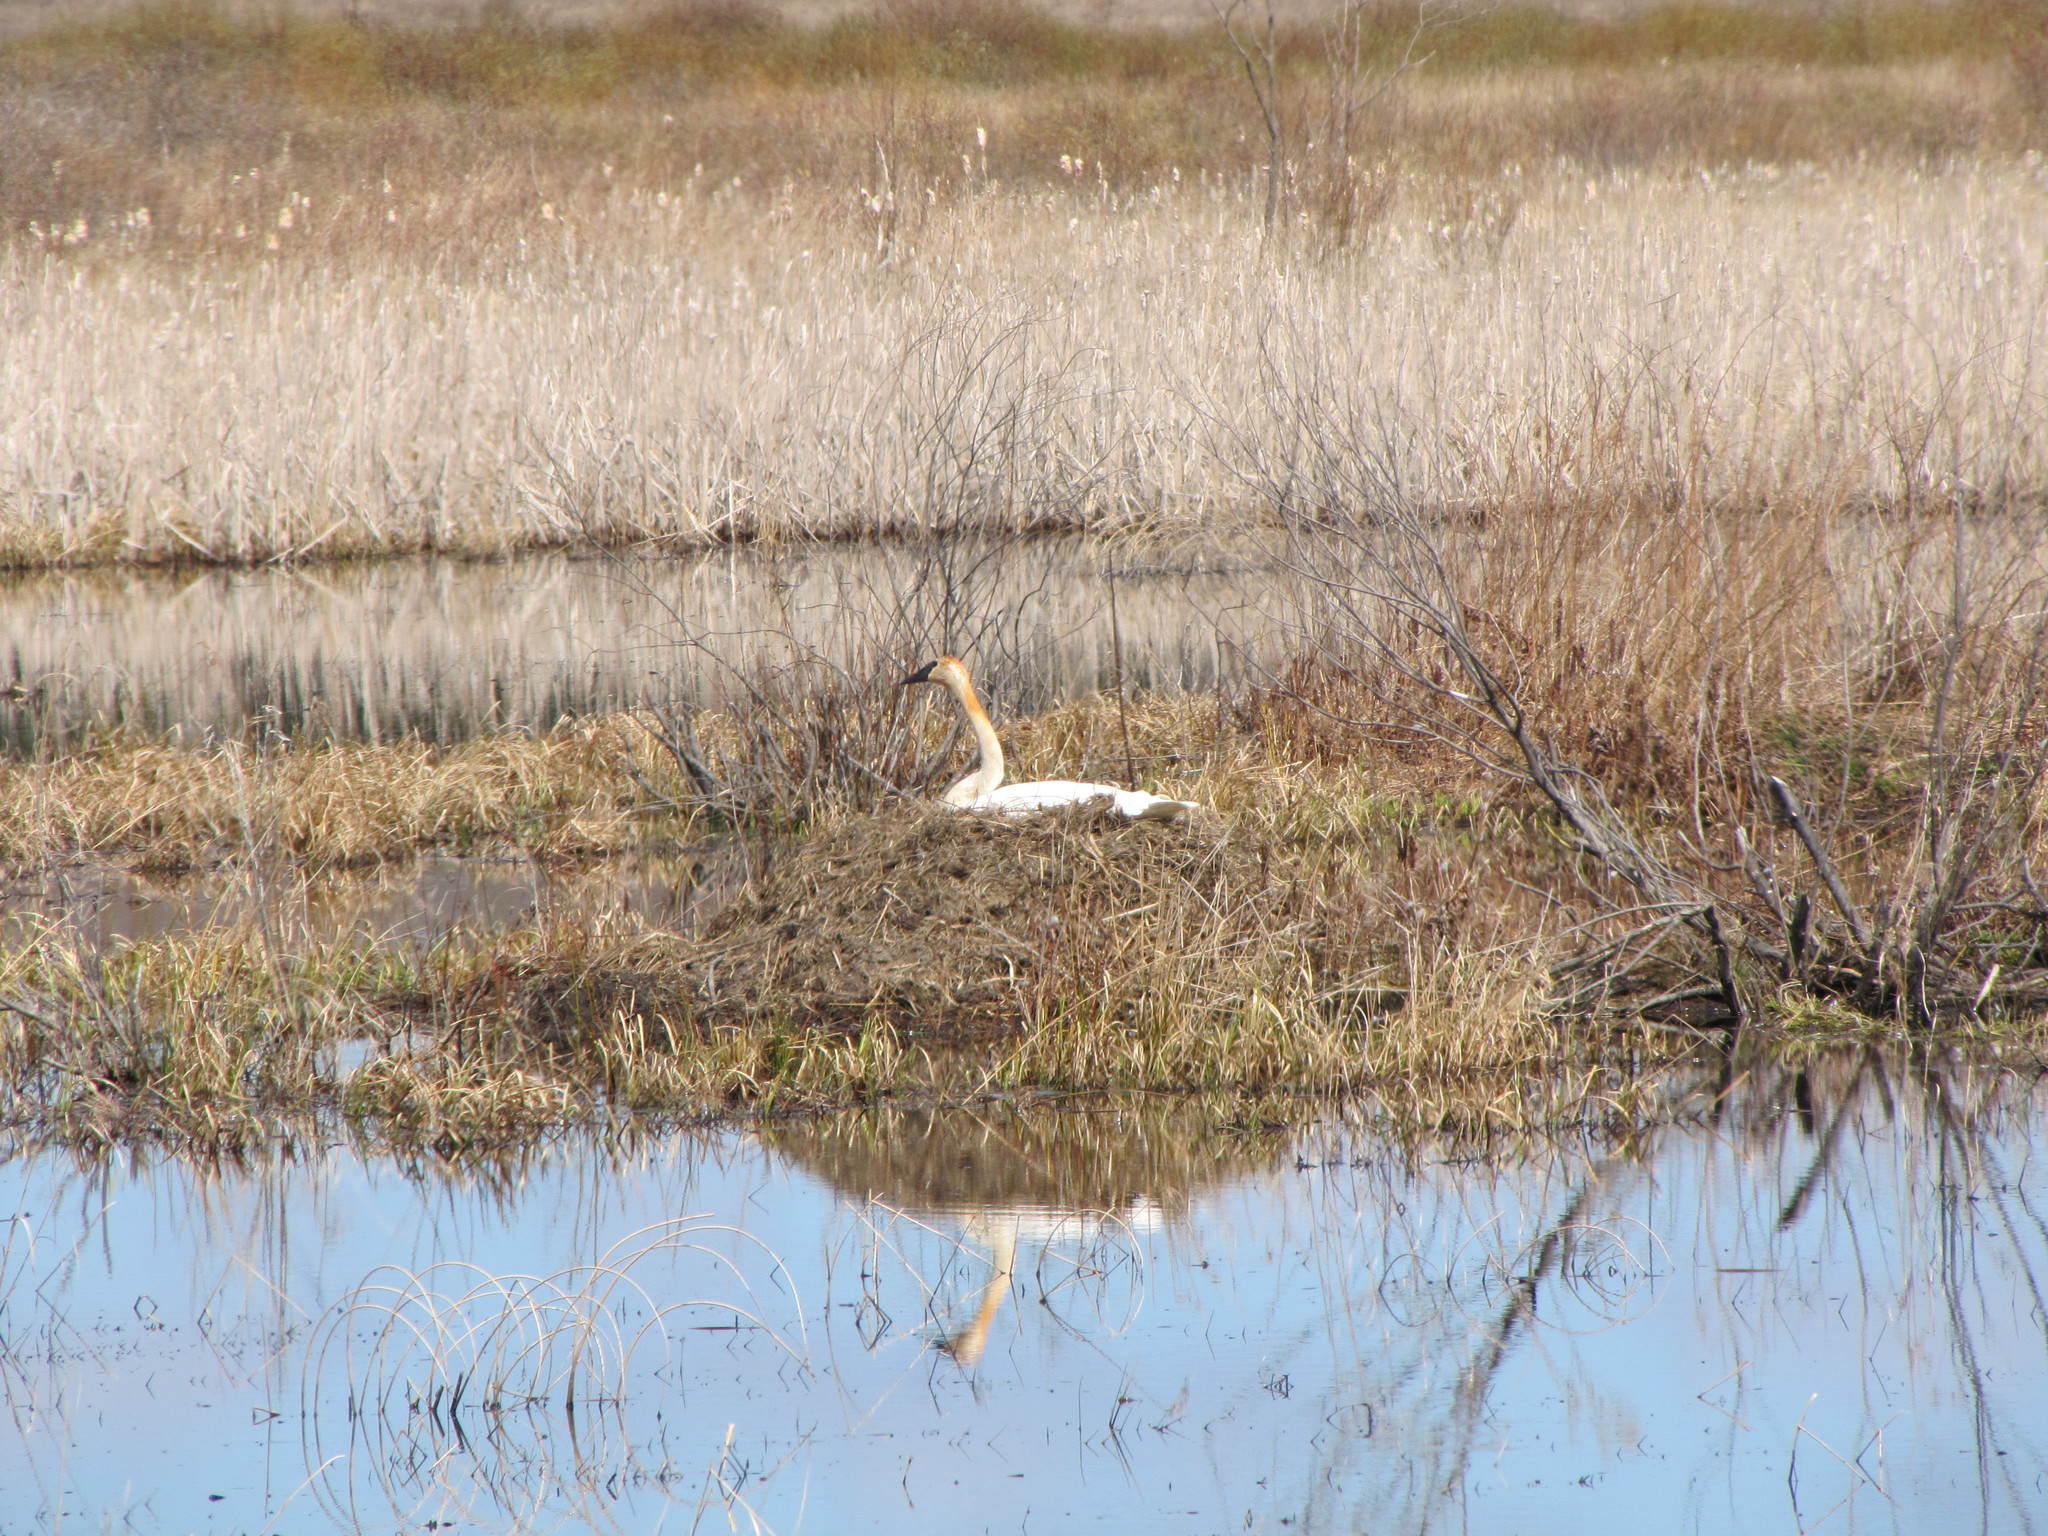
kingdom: Animalia
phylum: Chordata
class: Aves
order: Anseriformes
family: Anatidae
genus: Cygnus
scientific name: Cygnus buccinator
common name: Trumpeter swan
